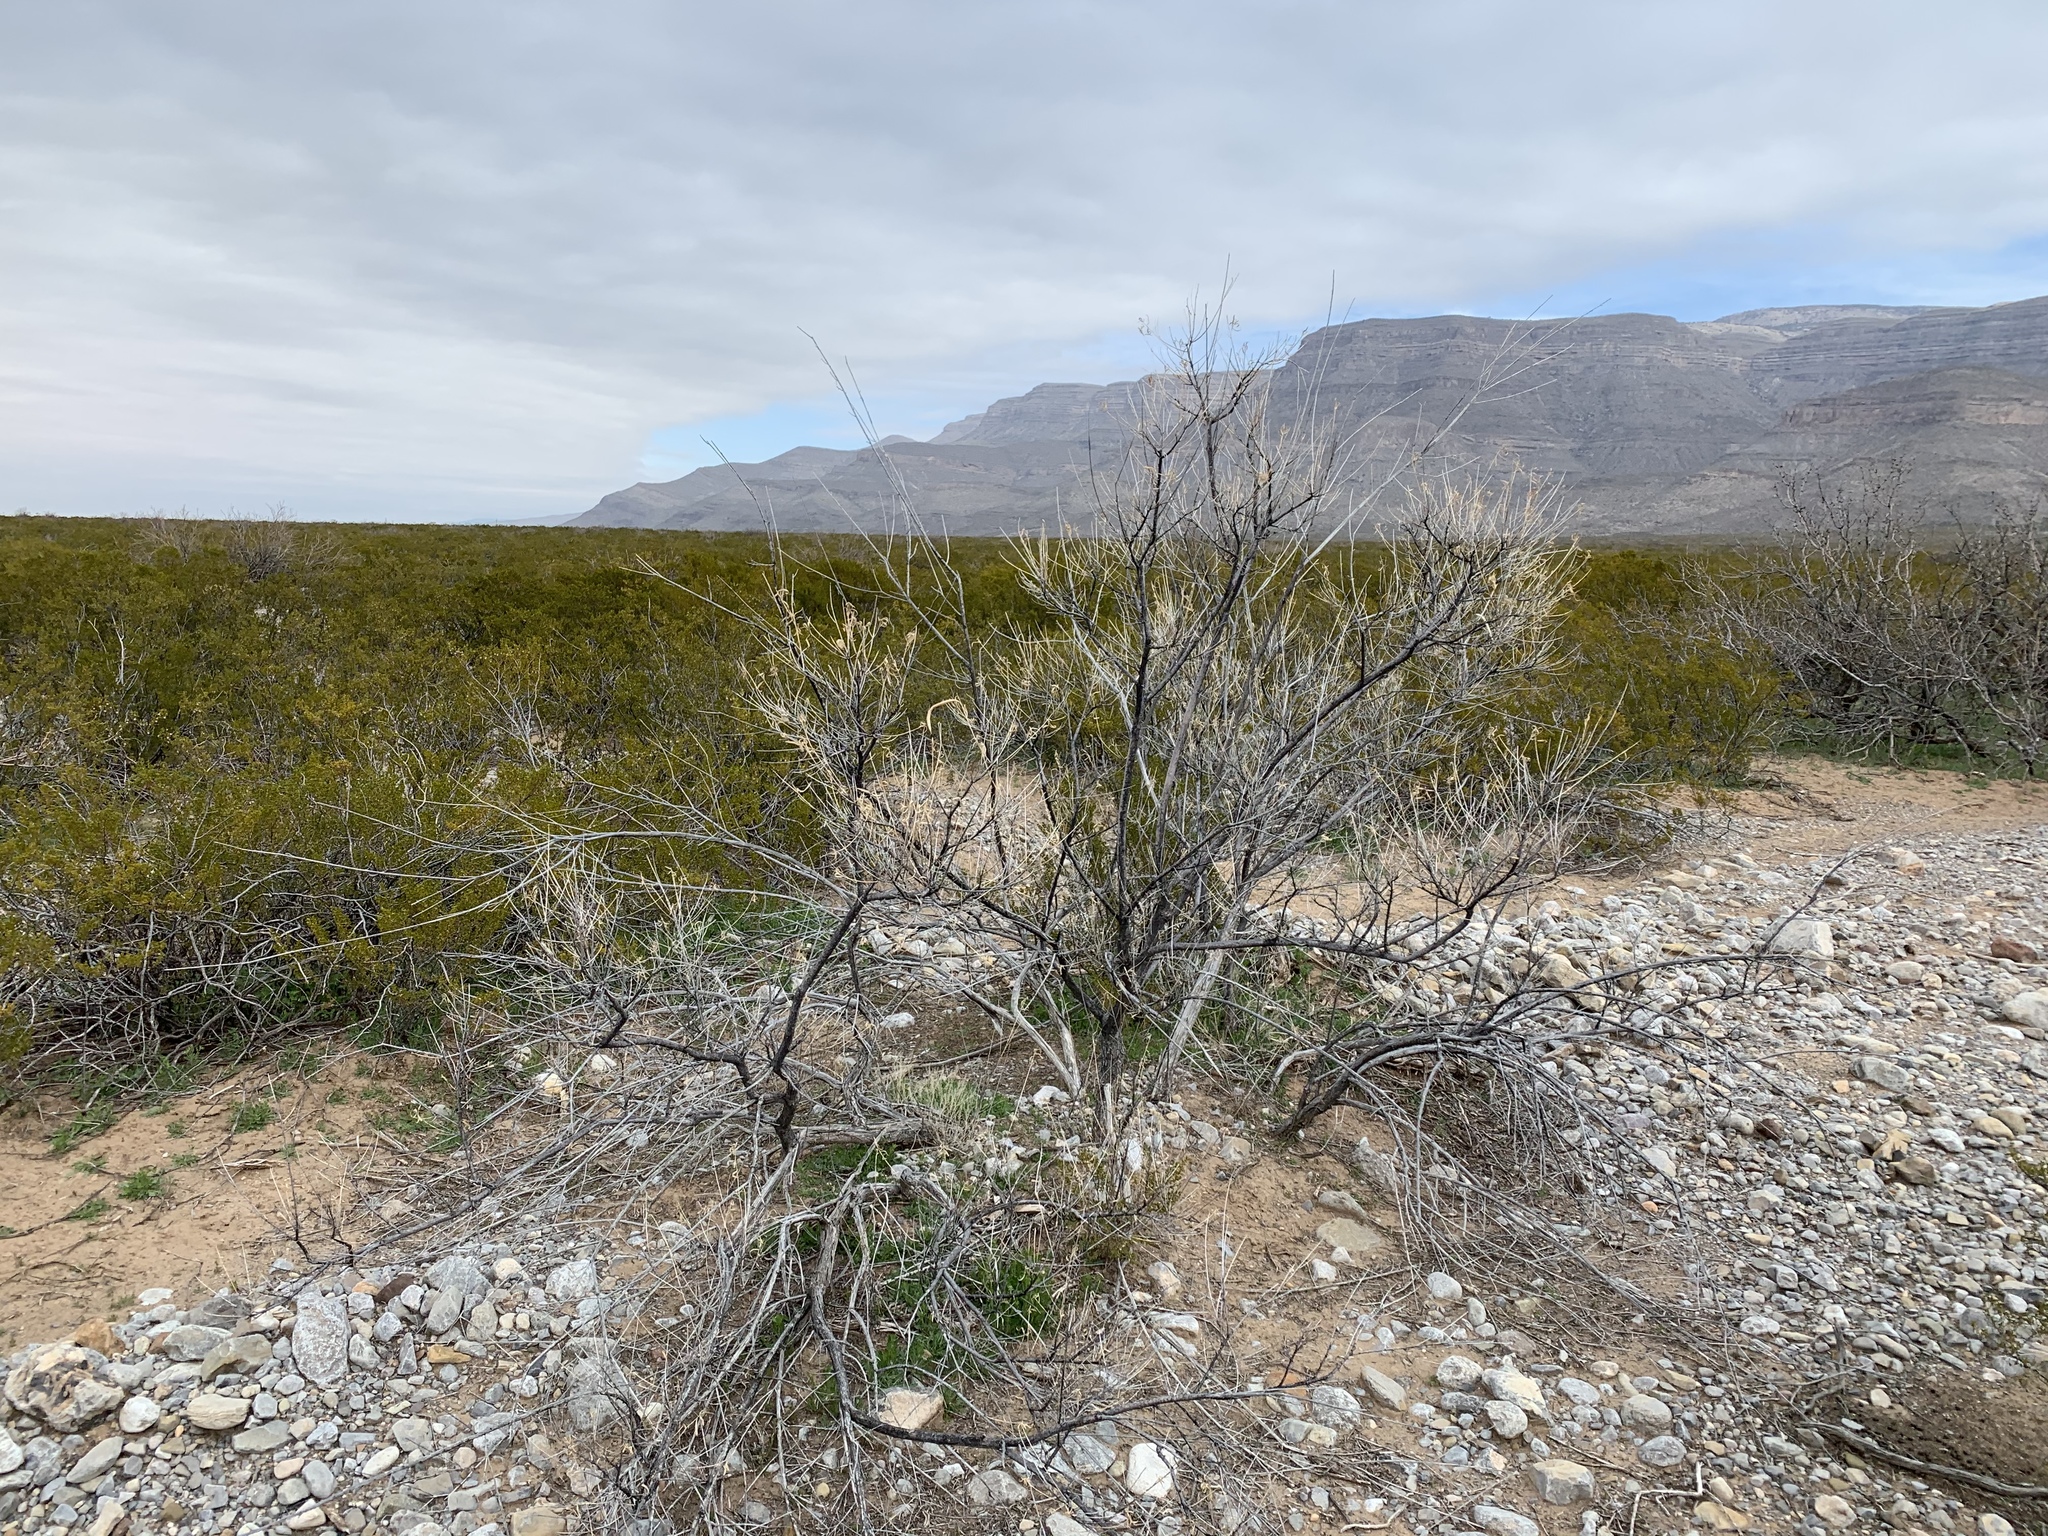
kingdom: Plantae
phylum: Tracheophyta
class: Magnoliopsida
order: Lamiales
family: Bignoniaceae
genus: Chilopsis
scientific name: Chilopsis linearis
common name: Desert-willow
